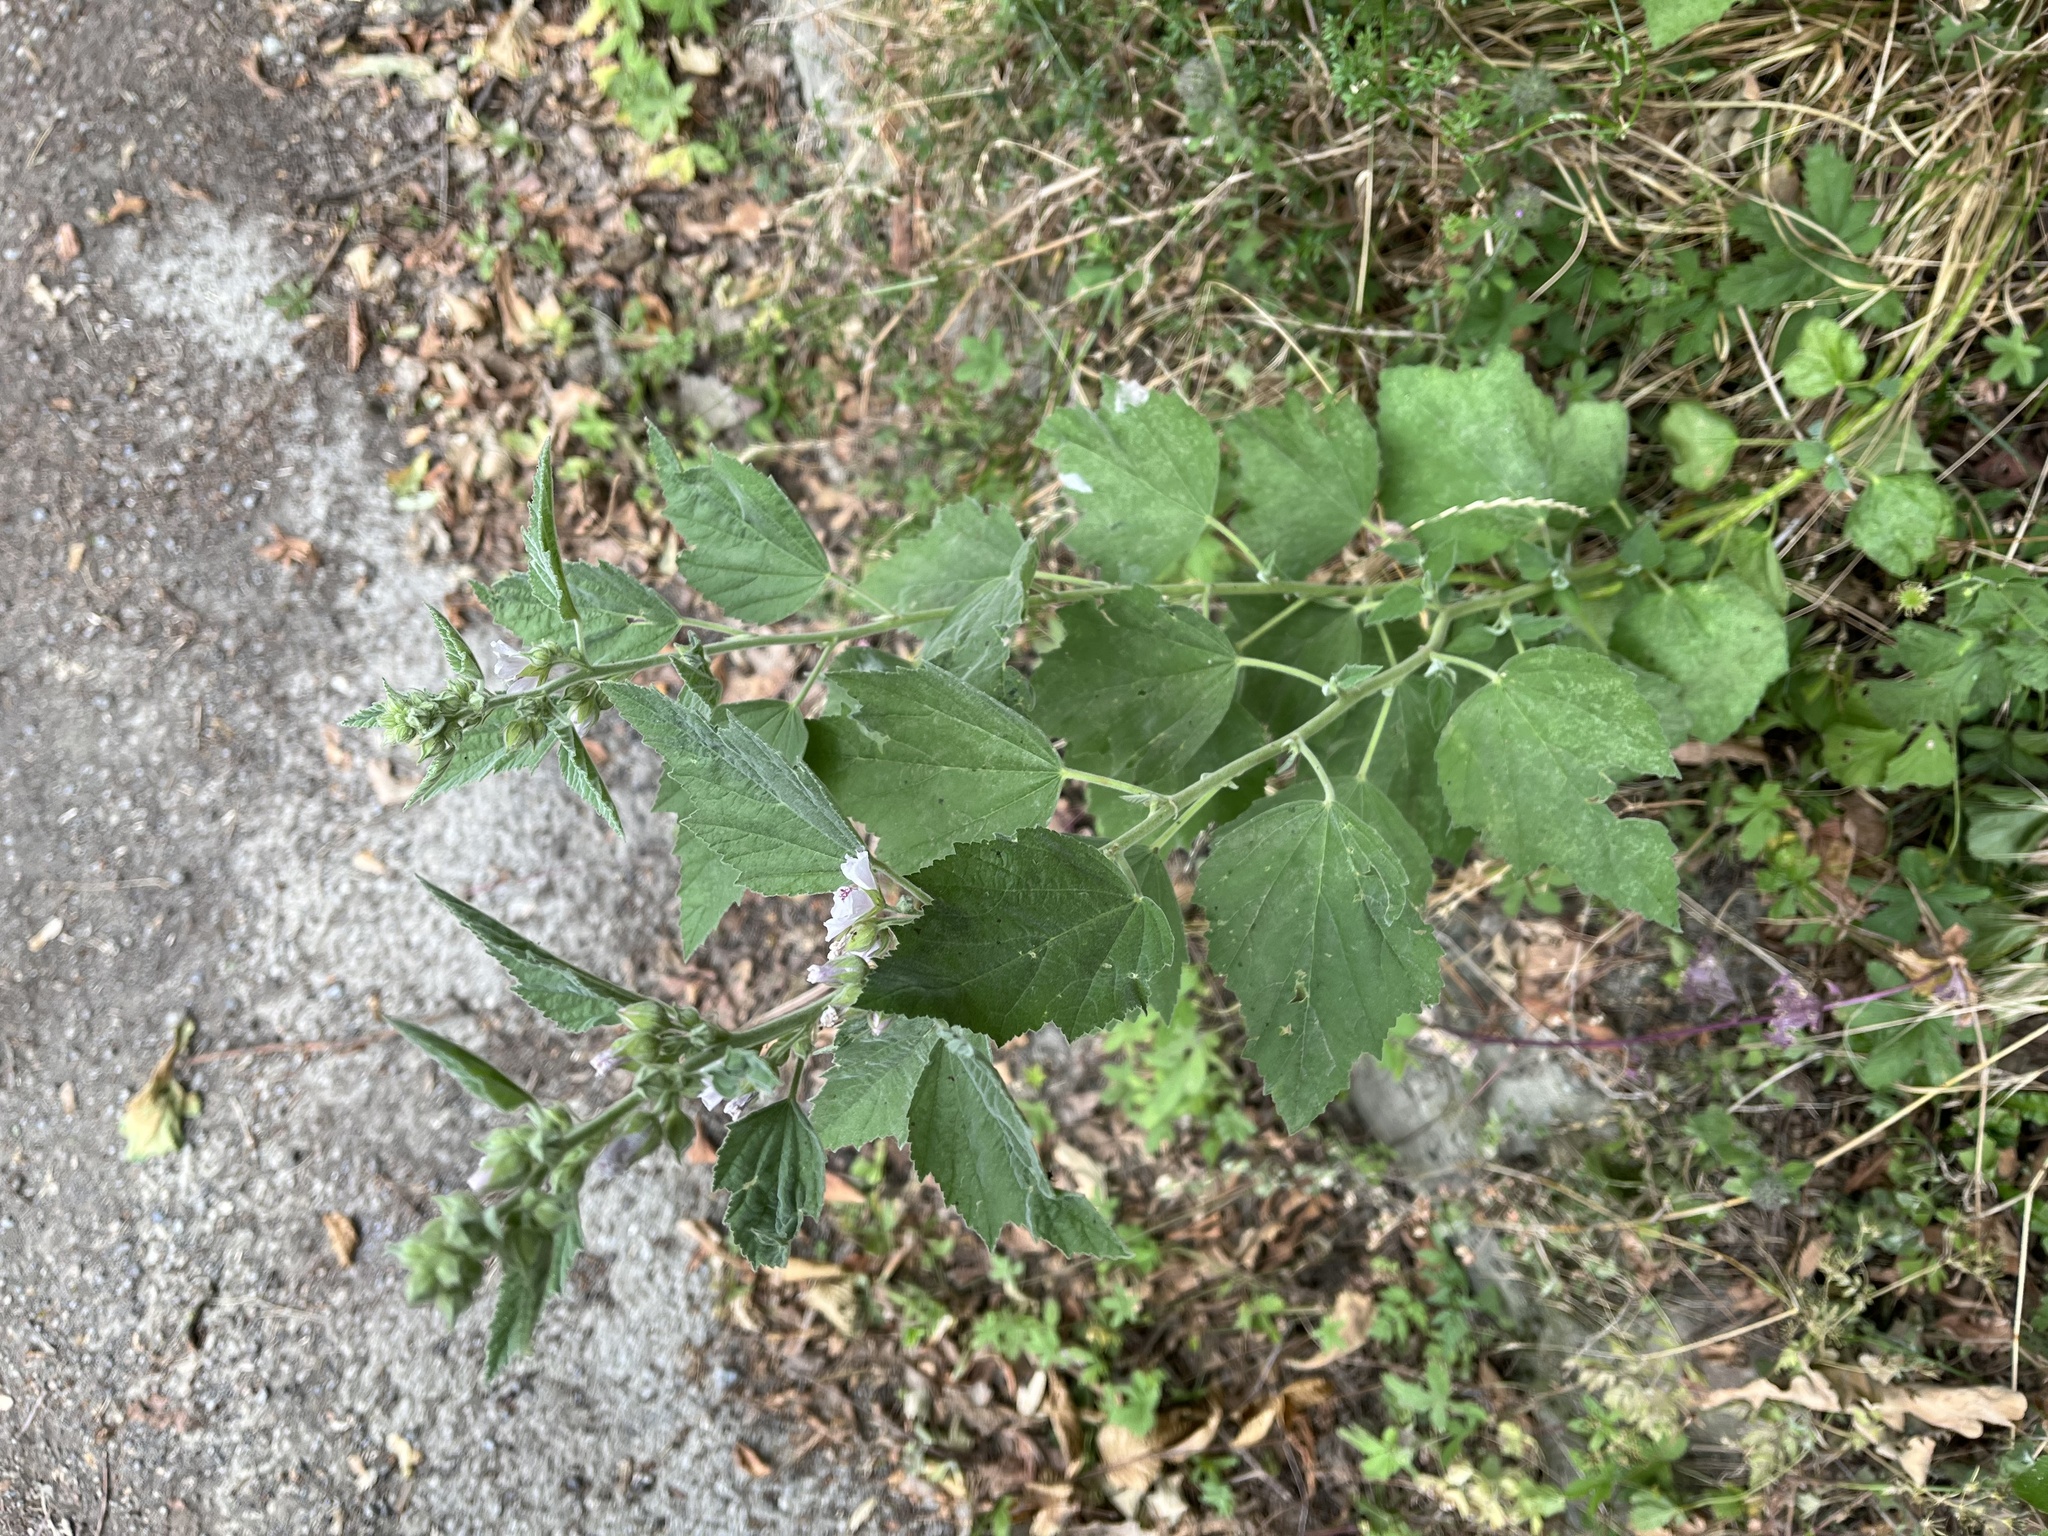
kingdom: Plantae
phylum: Tracheophyta
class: Magnoliopsida
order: Malvales
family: Malvaceae
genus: Althaea
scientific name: Althaea officinalis
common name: Marsh-mallow
